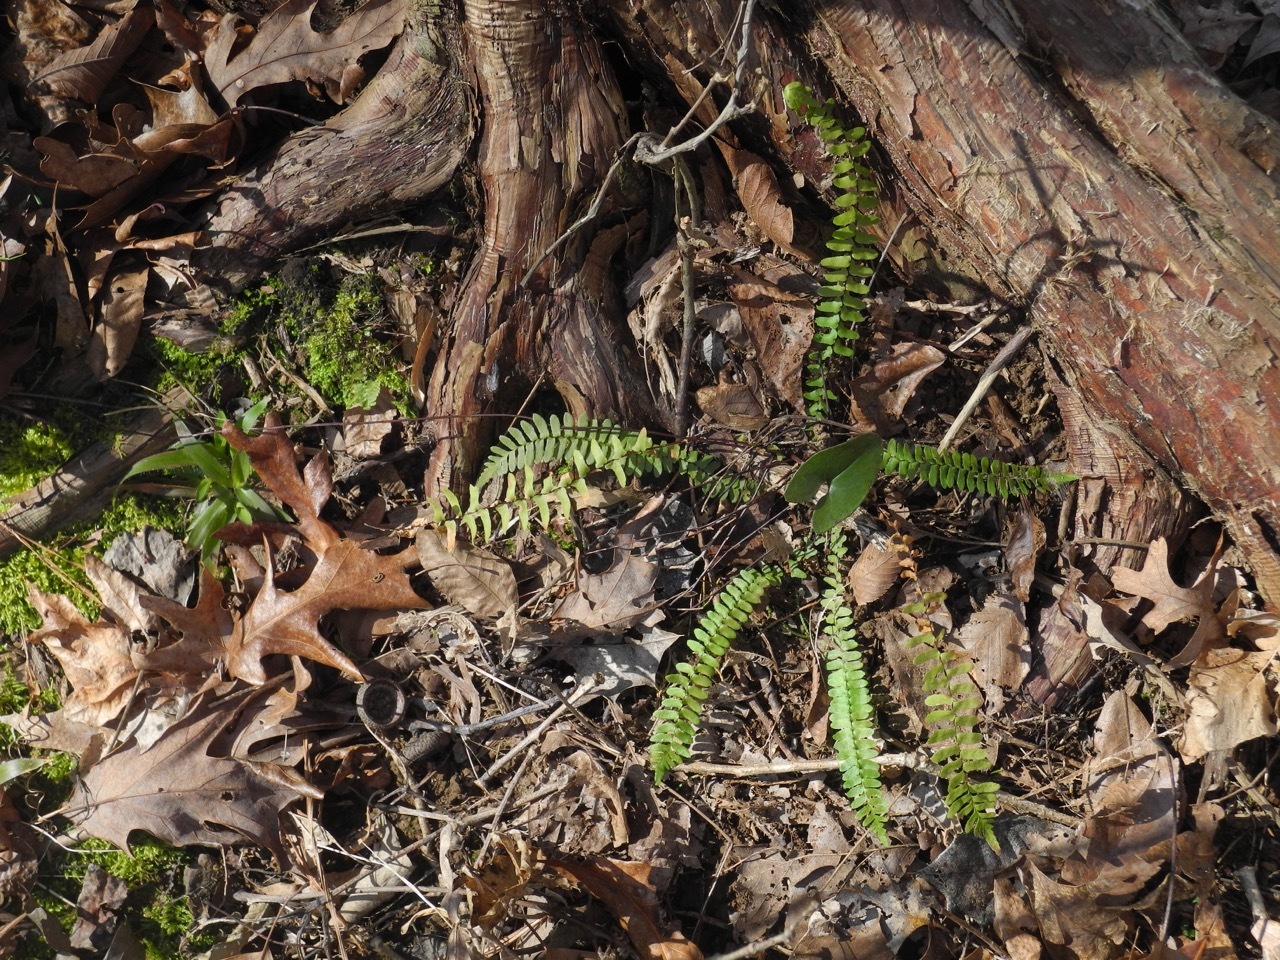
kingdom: Plantae
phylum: Tracheophyta
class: Polypodiopsida
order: Polypodiales
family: Aspleniaceae
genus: Asplenium
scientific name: Asplenium platyneuron
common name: Ebony spleenwort
